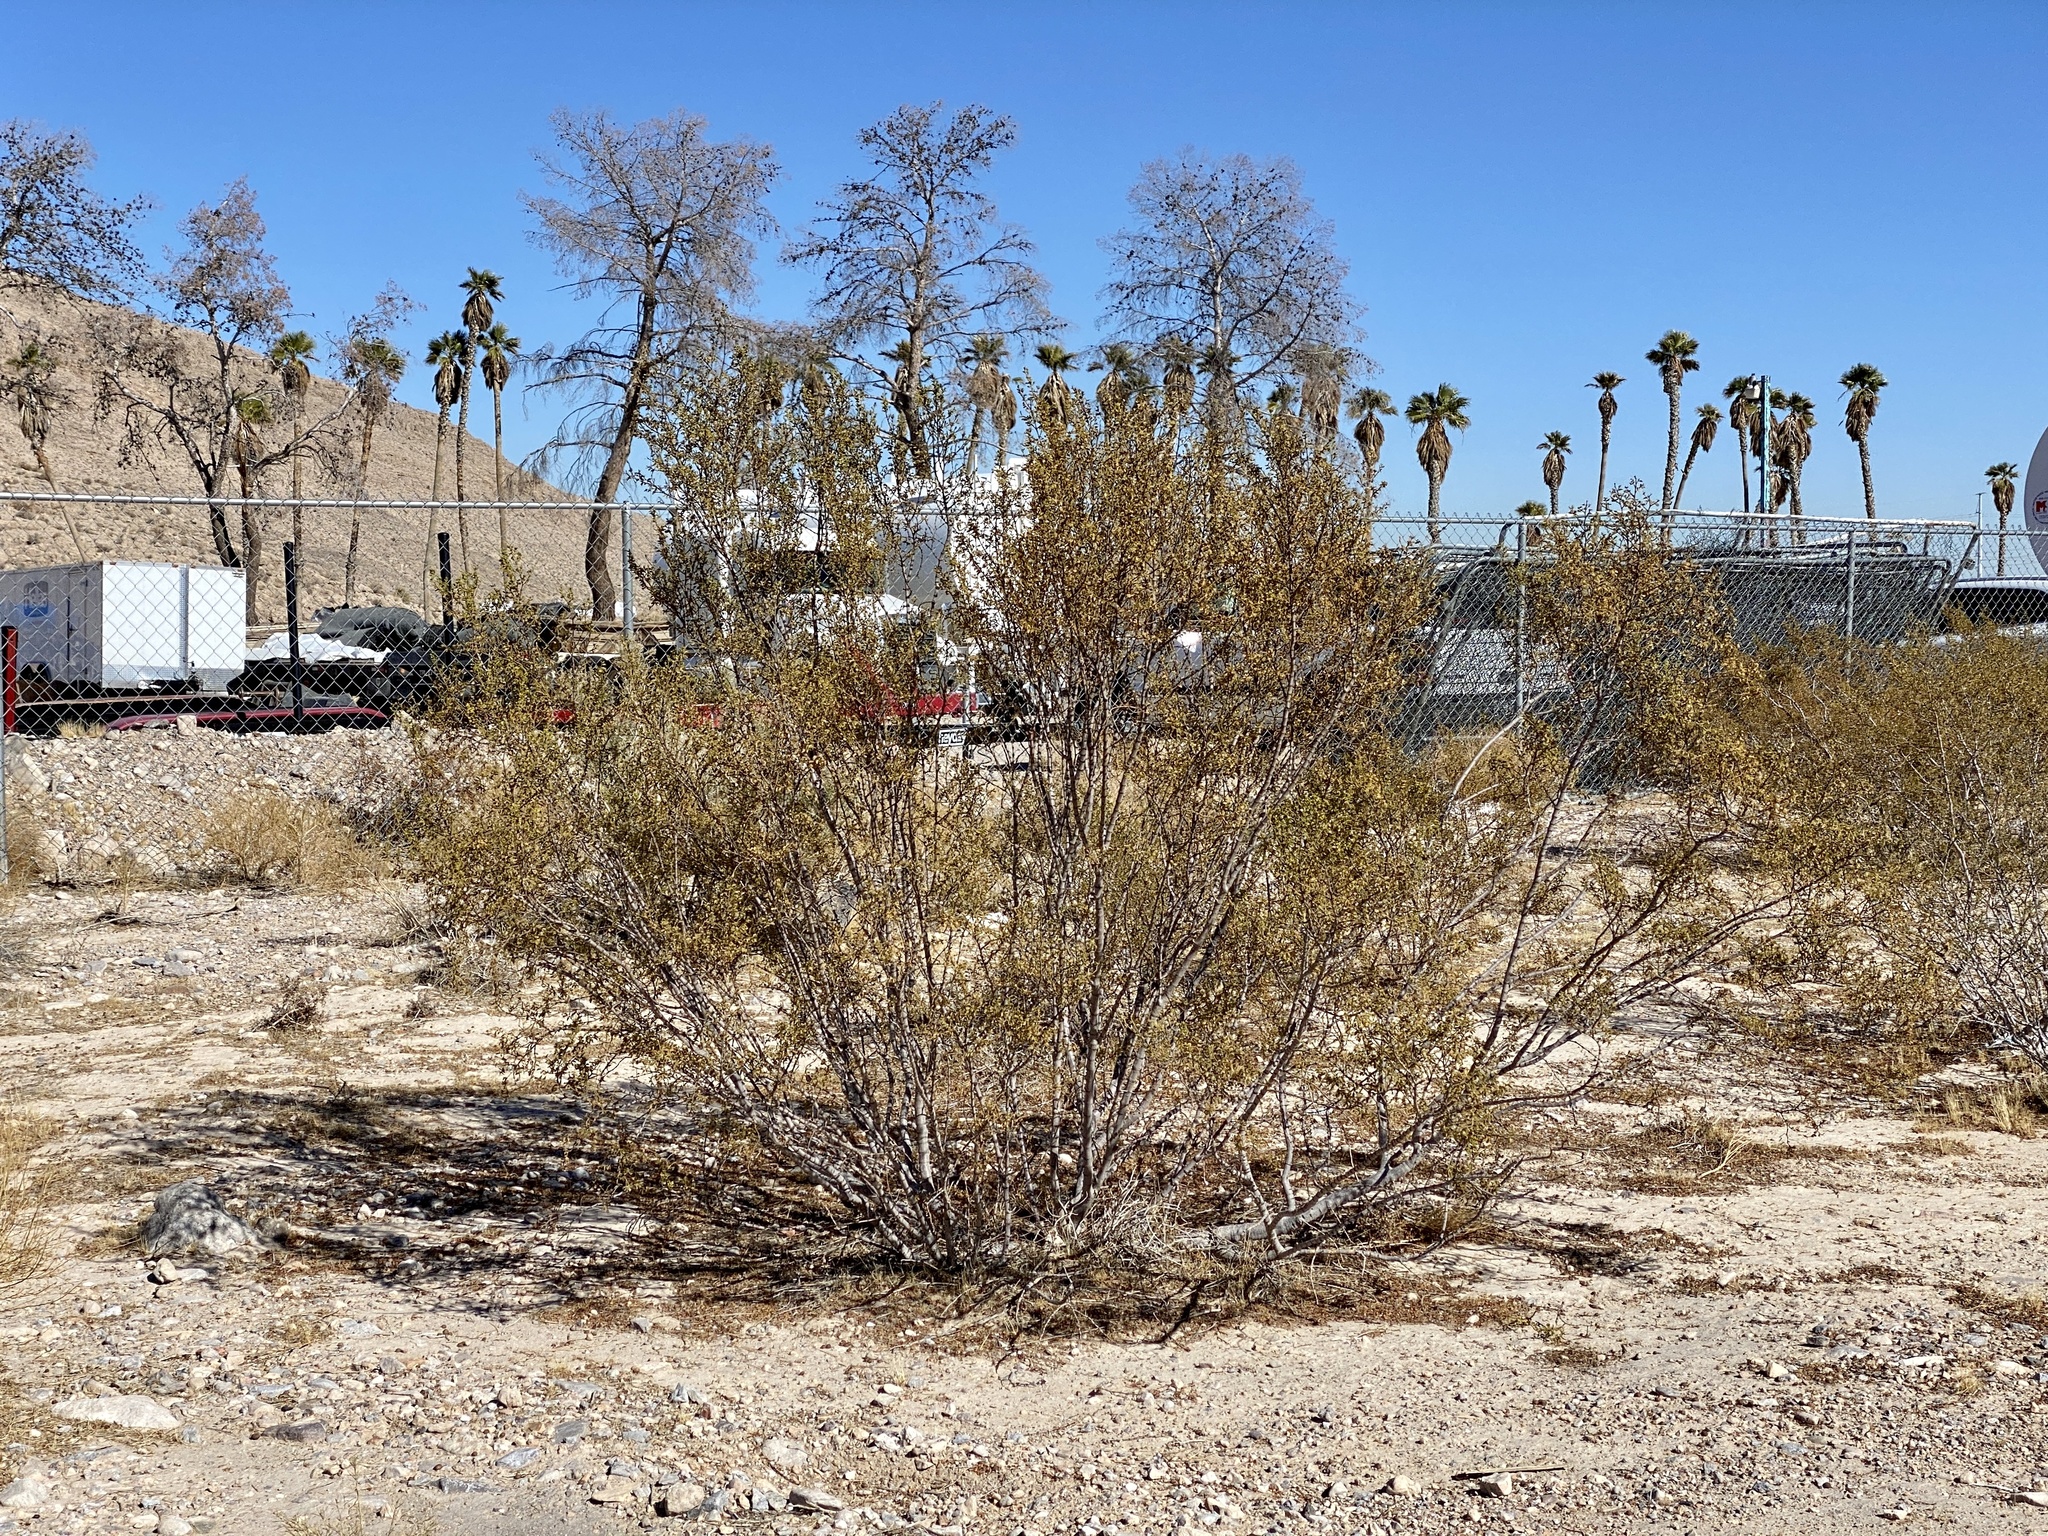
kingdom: Plantae
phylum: Tracheophyta
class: Magnoliopsida
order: Zygophyllales
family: Zygophyllaceae
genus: Larrea
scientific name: Larrea tridentata
